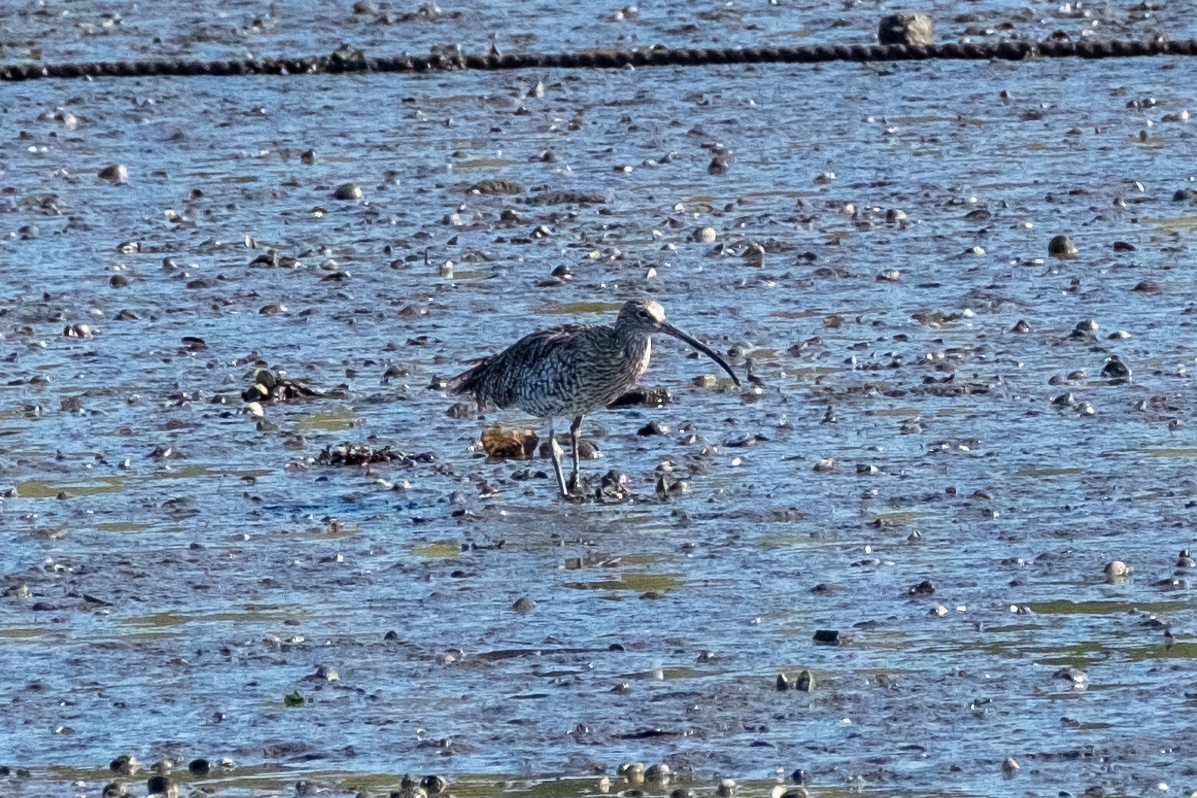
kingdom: Animalia
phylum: Chordata
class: Aves
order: Charadriiformes
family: Scolopacidae
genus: Numenius
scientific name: Numenius arquata
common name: Eurasian curlew
